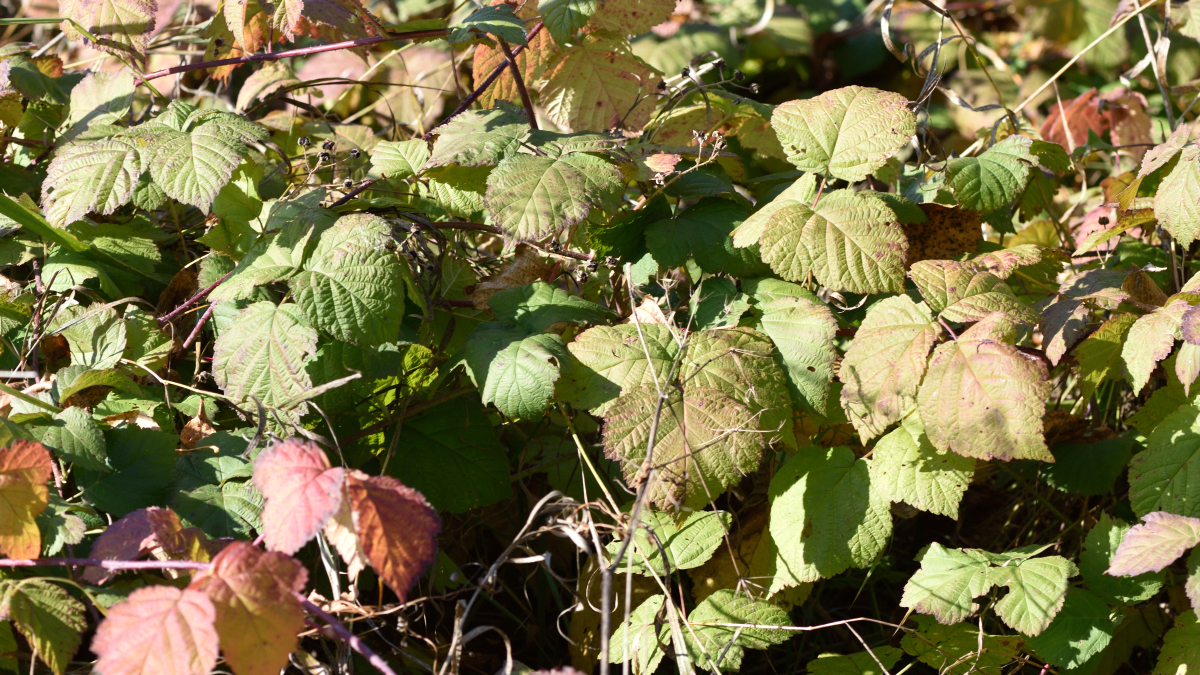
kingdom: Plantae
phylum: Tracheophyta
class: Magnoliopsida
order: Rosales
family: Rosaceae
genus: Rubus
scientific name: Rubus caesius
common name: Dewberry
